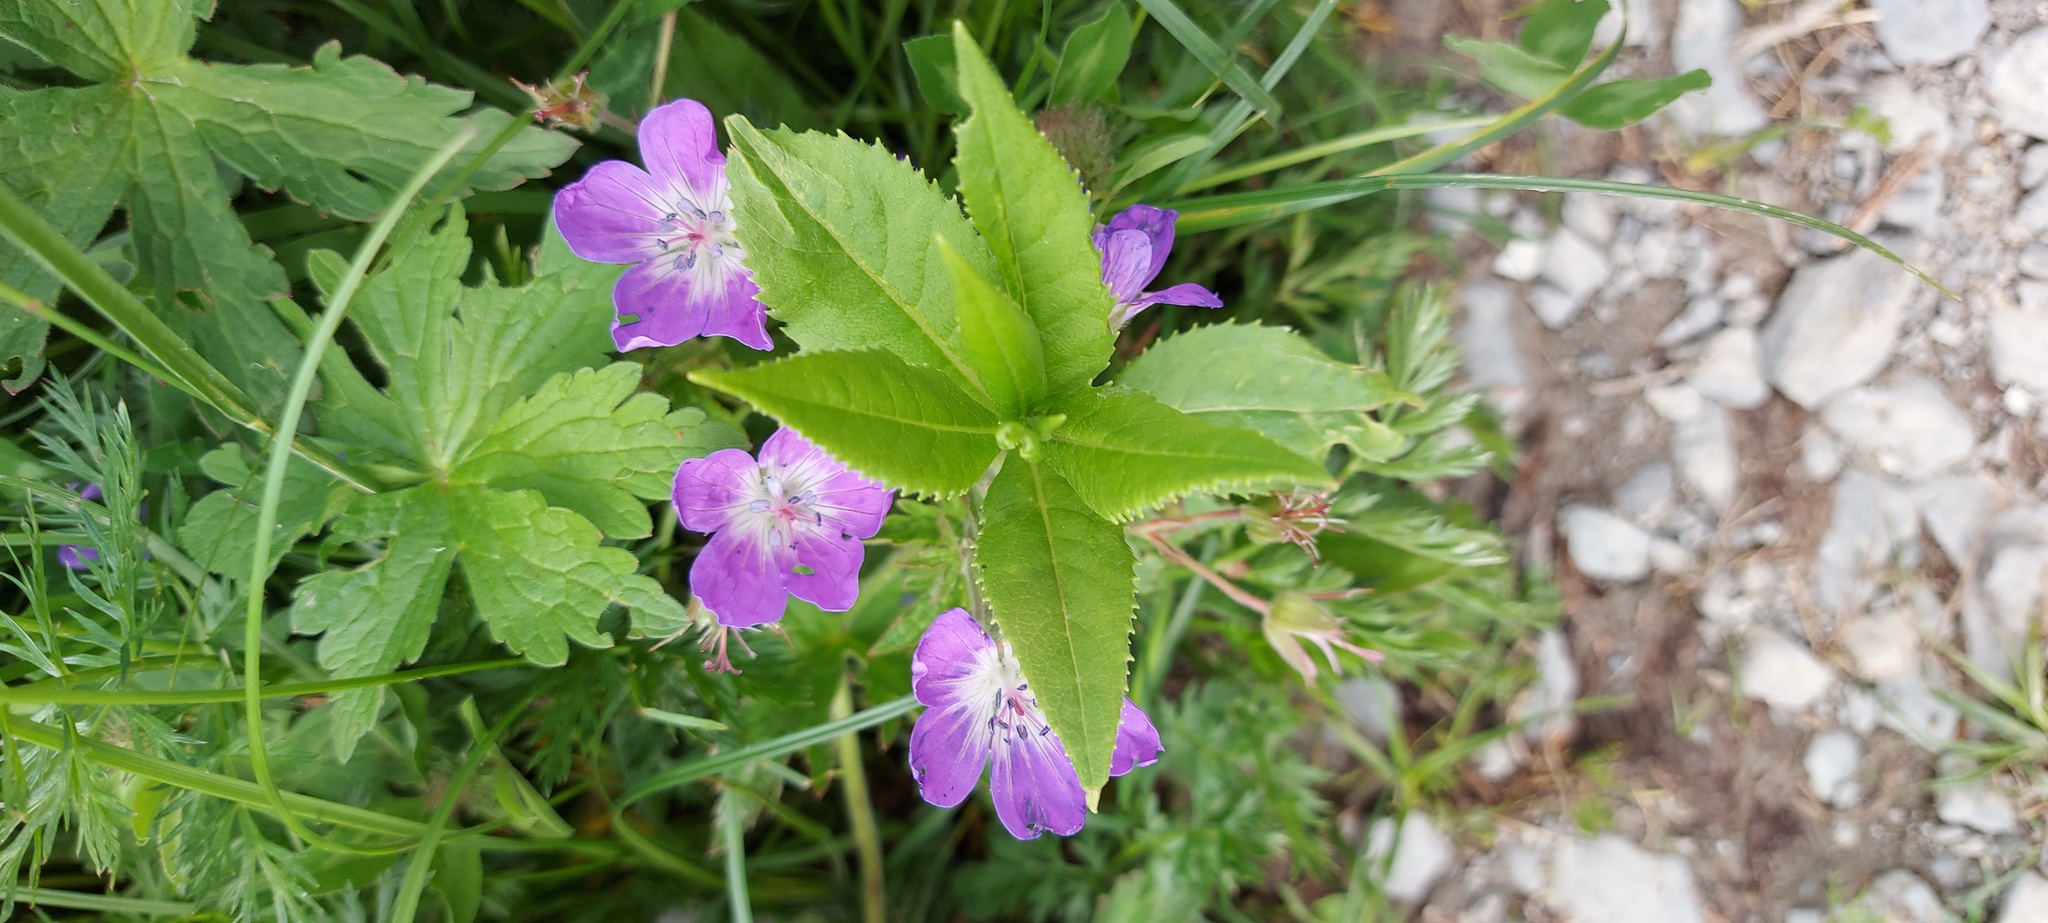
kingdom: Plantae
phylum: Tracheophyta
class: Magnoliopsida
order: Geraniales
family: Geraniaceae
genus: Geranium
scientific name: Geranium sylvaticum
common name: Wood crane's-bill
